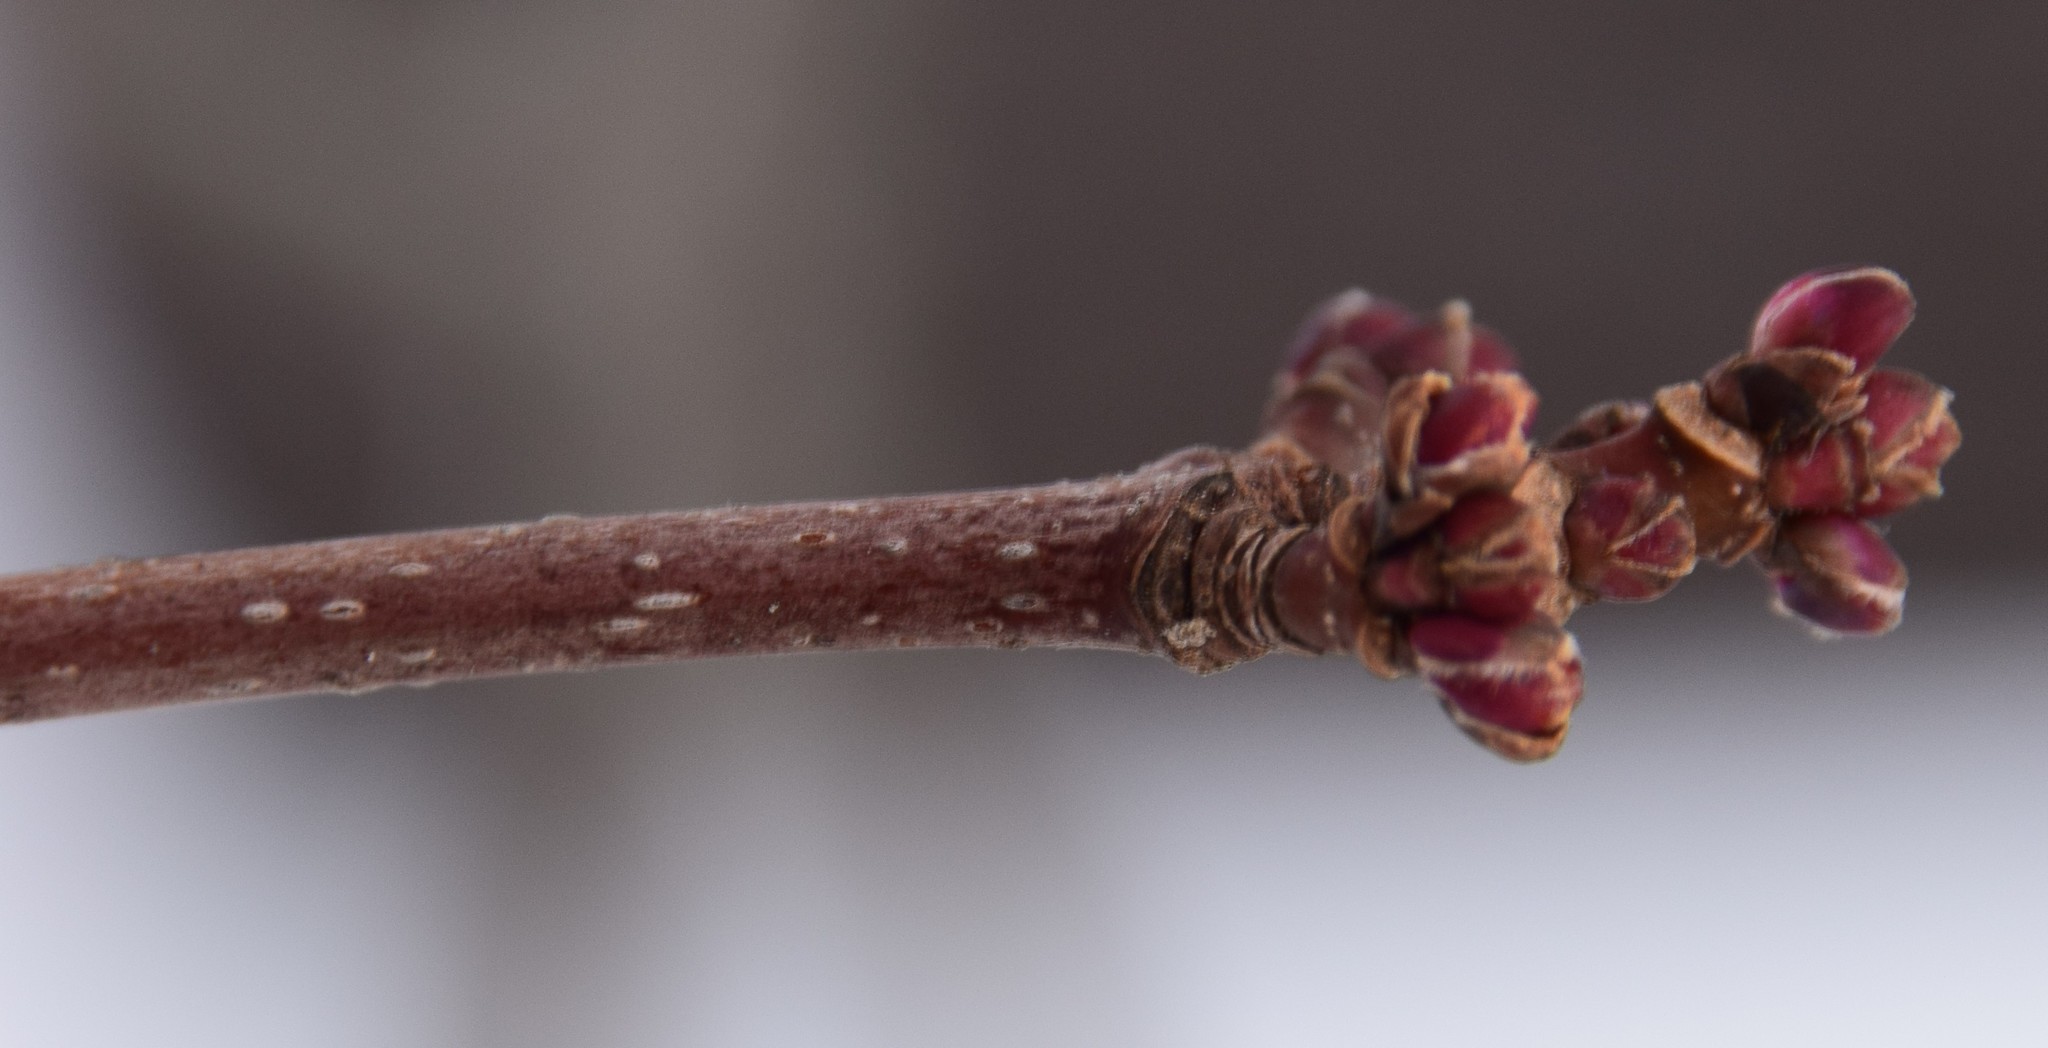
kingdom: Plantae
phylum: Tracheophyta
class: Magnoliopsida
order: Sapindales
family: Sapindaceae
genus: Acer
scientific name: Acer rubrum
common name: Red maple
